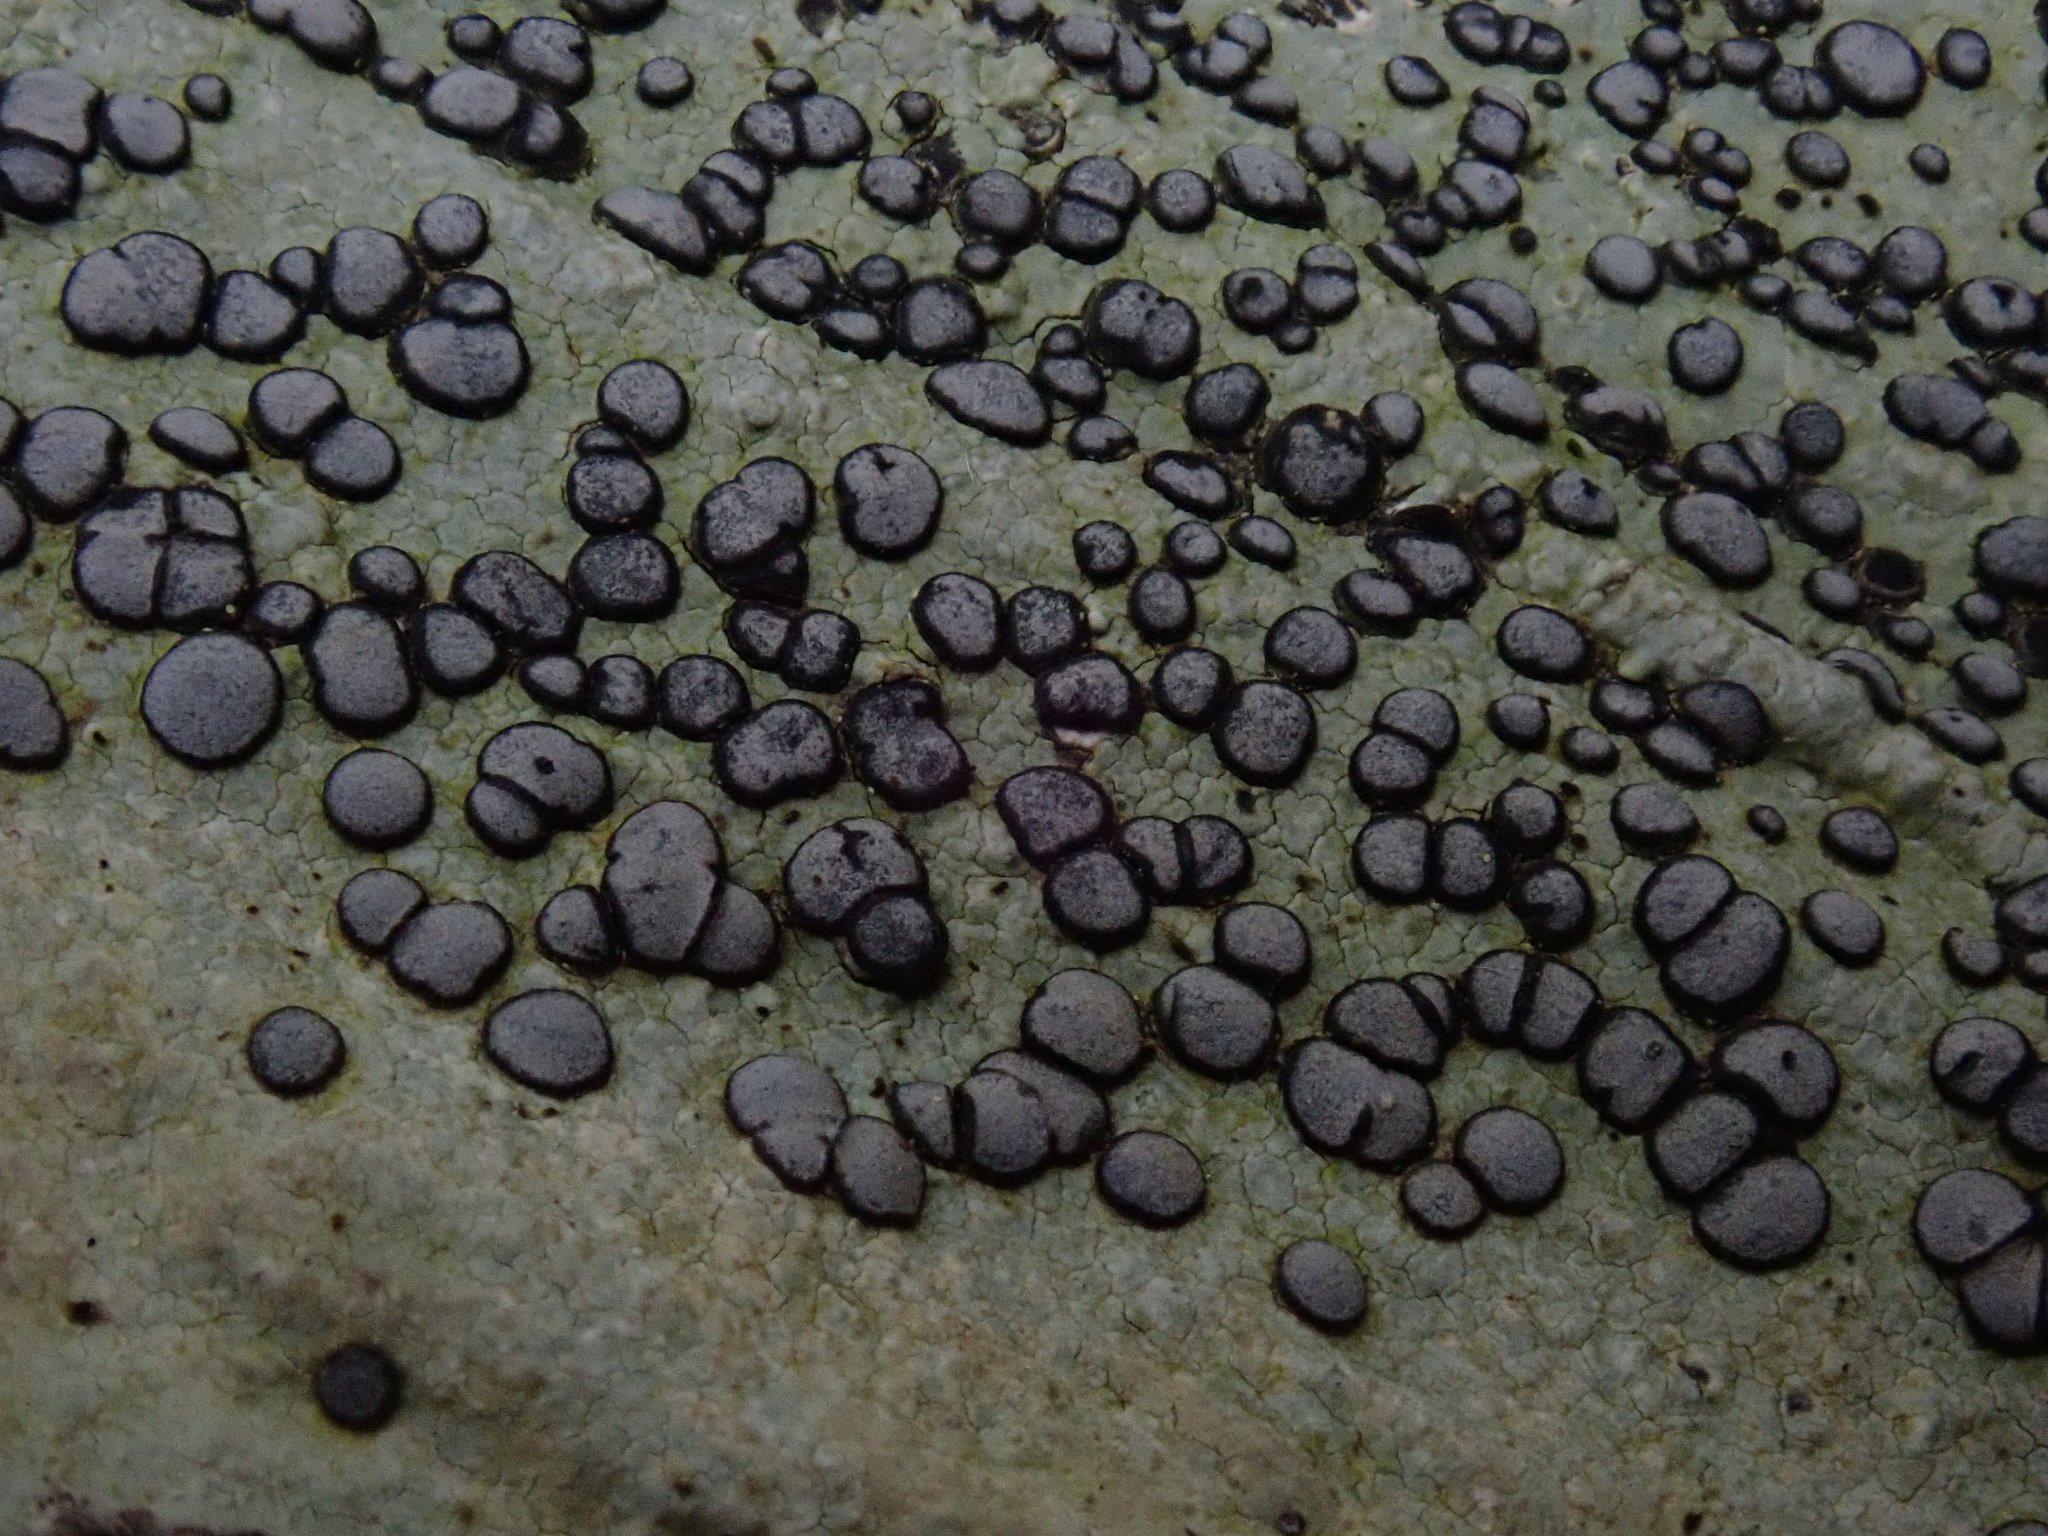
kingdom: Fungi
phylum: Ascomycota
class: Lecanoromycetes
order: Lecideales
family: Lecideaceae
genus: Porpidia
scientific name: Porpidia albocaerulescens
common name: Smokey-eyed boulder lichen
